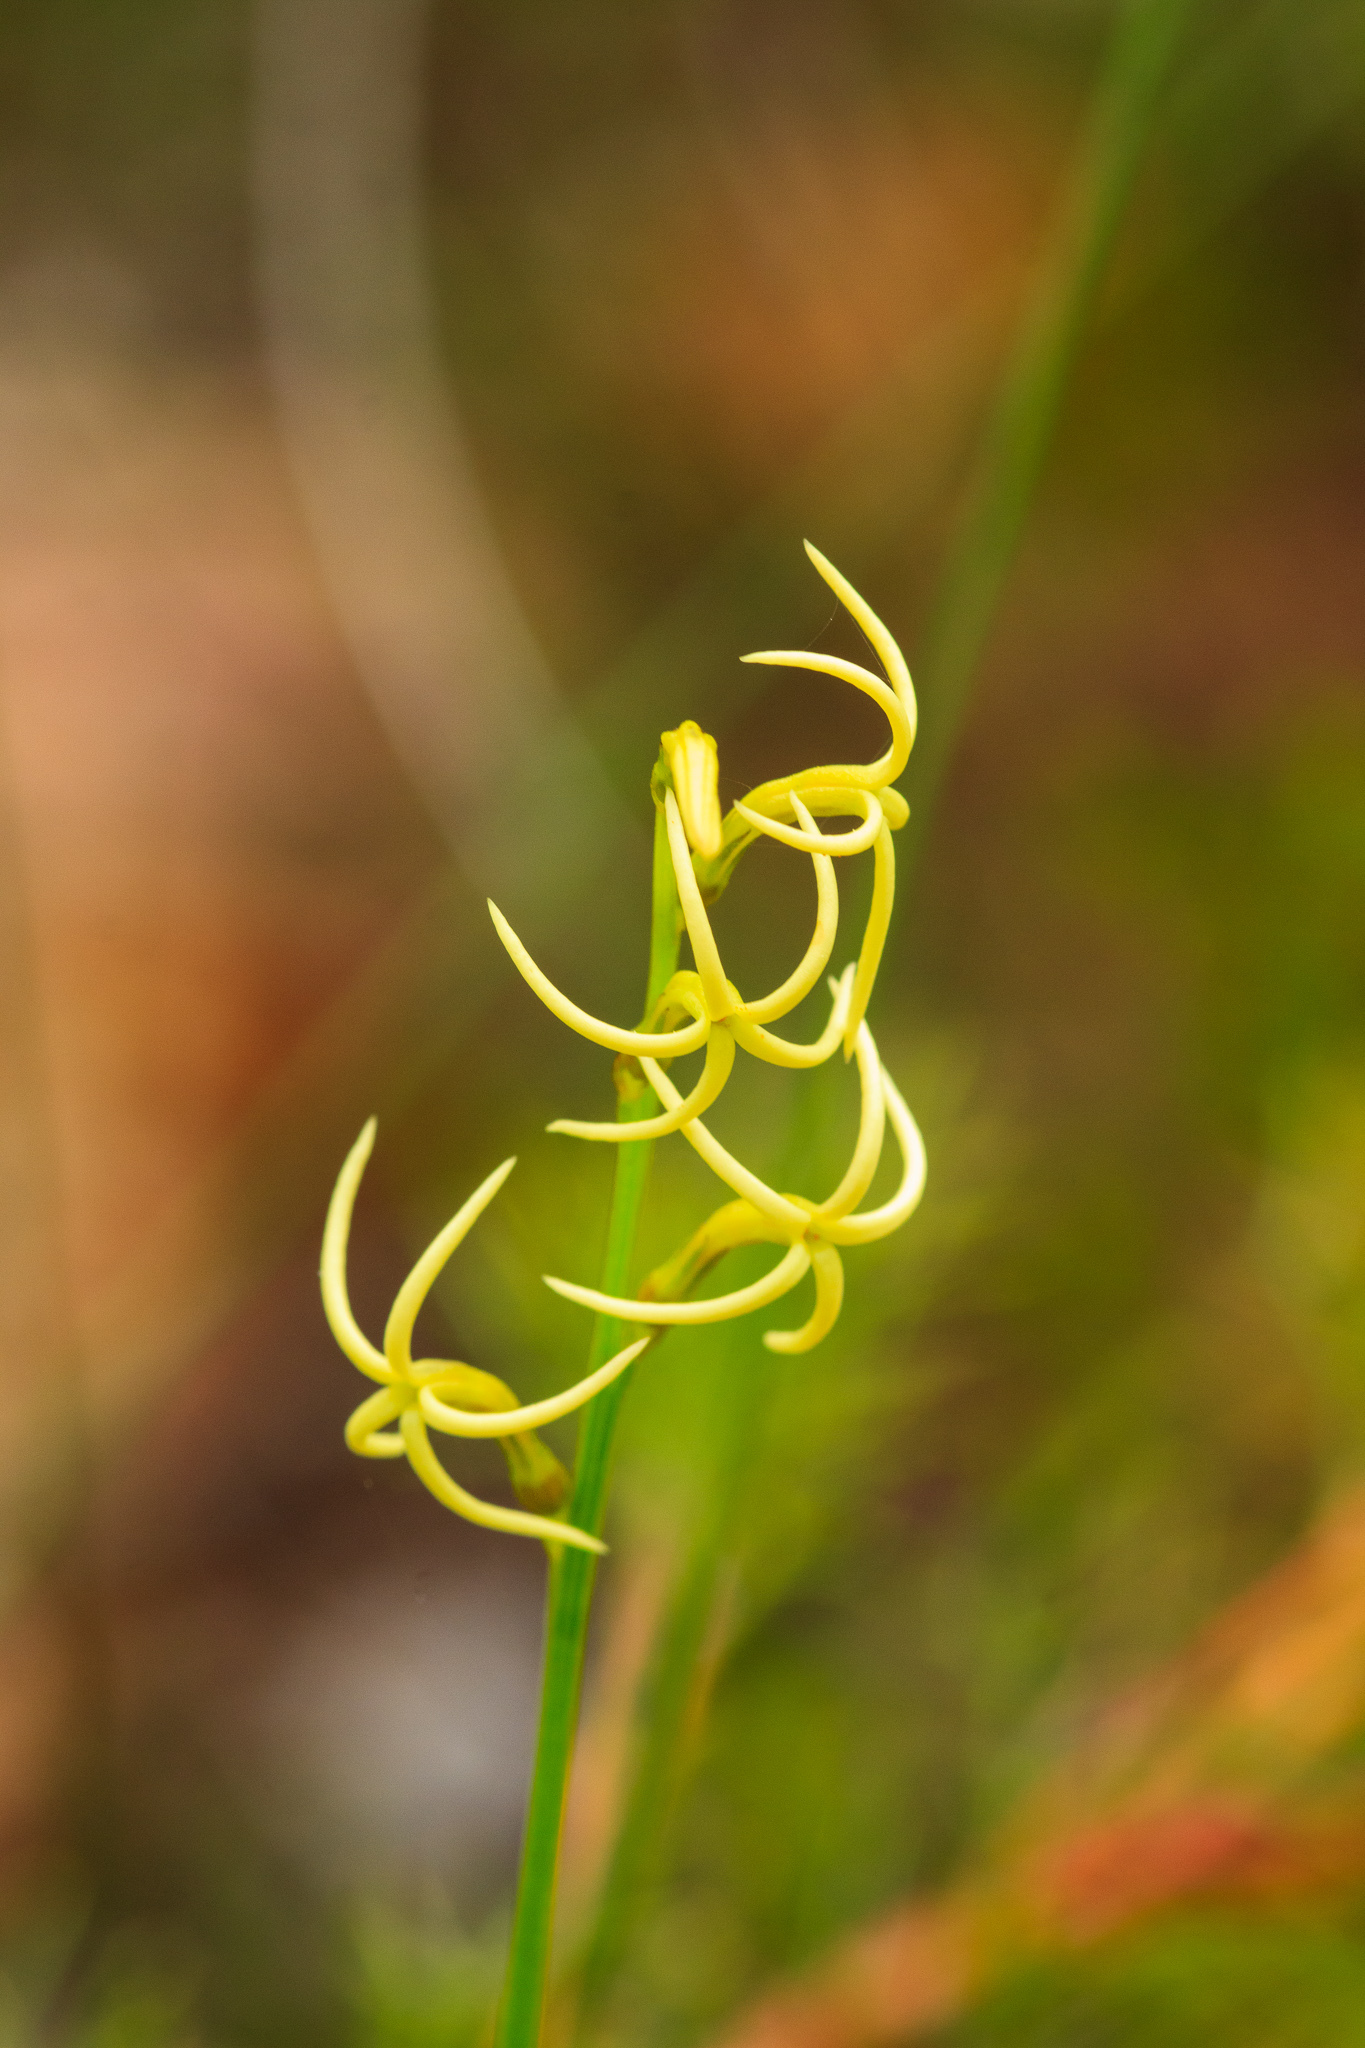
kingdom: Plantae
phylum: Tracheophyta
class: Magnoliopsida
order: Celastrales
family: Celastraceae
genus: Tripterococcus
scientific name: Tripterococcus brunonis
